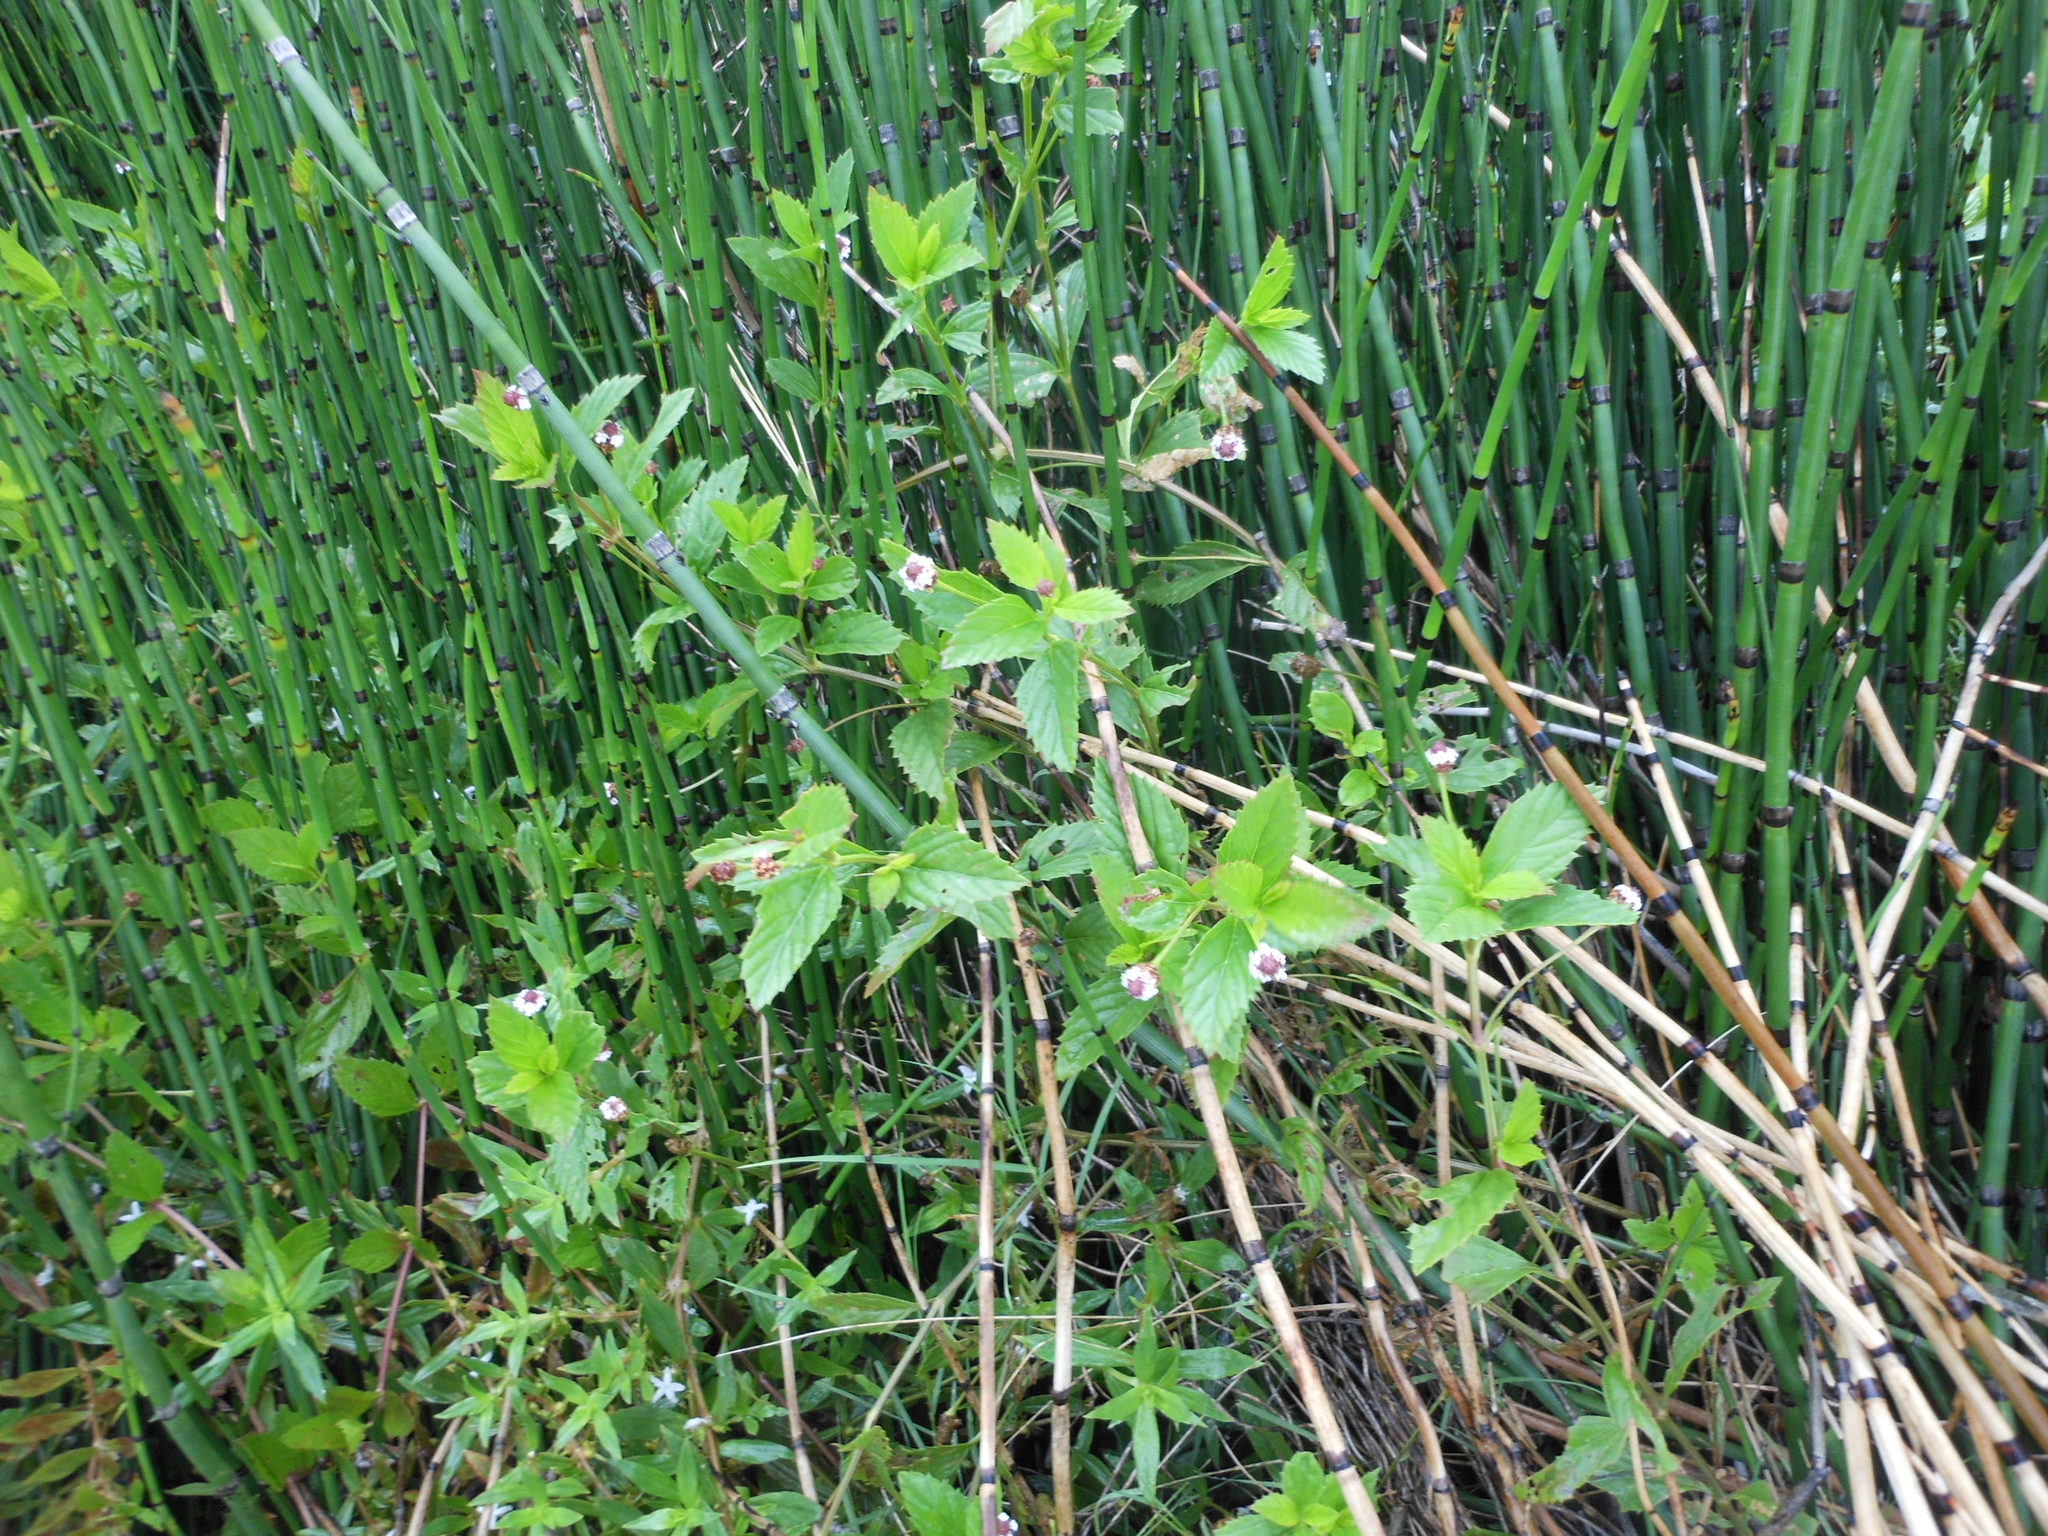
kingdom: Plantae
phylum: Tracheophyta
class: Magnoliopsida
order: Lamiales
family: Verbenaceae
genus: Phyla
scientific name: Phyla lanceolata
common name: Northern fogfruit
